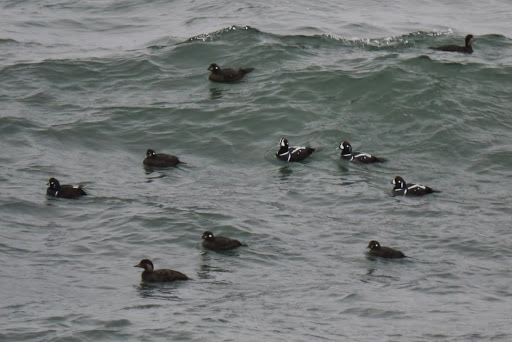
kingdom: Animalia
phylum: Chordata
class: Aves
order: Anseriformes
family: Anatidae
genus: Histrionicus
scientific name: Histrionicus histrionicus
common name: Harlequin duck
